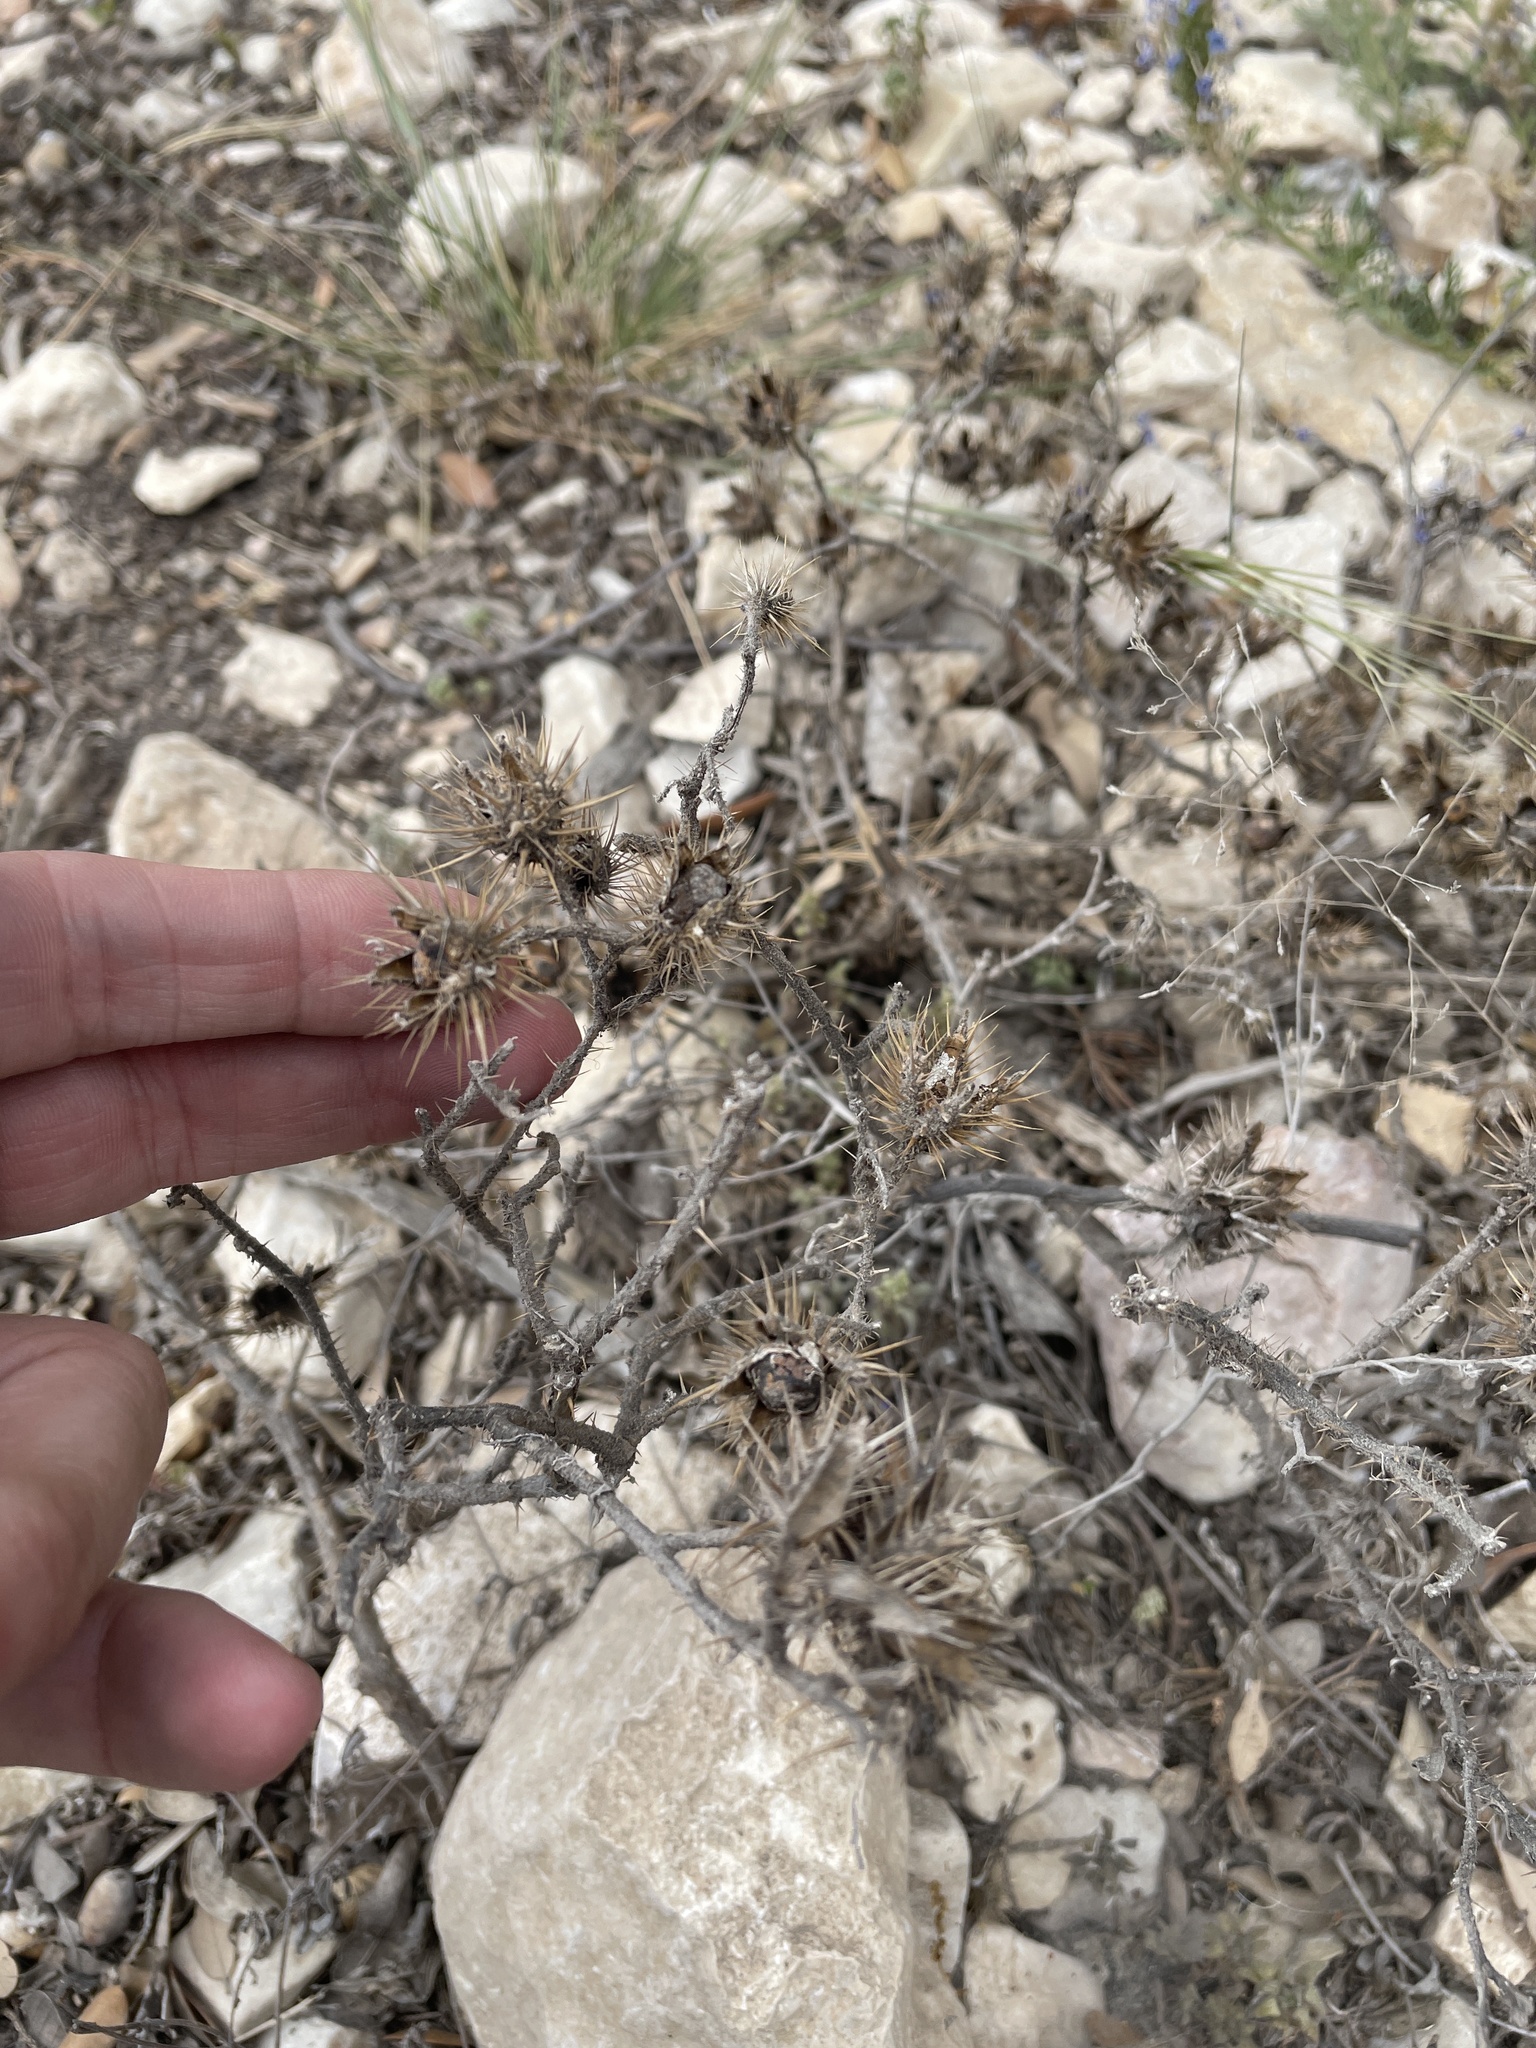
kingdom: Plantae
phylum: Tracheophyta
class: Magnoliopsida
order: Solanales
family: Solanaceae
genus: Solanum
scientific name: Solanum angustifolium
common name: Buffalobur nightshade
